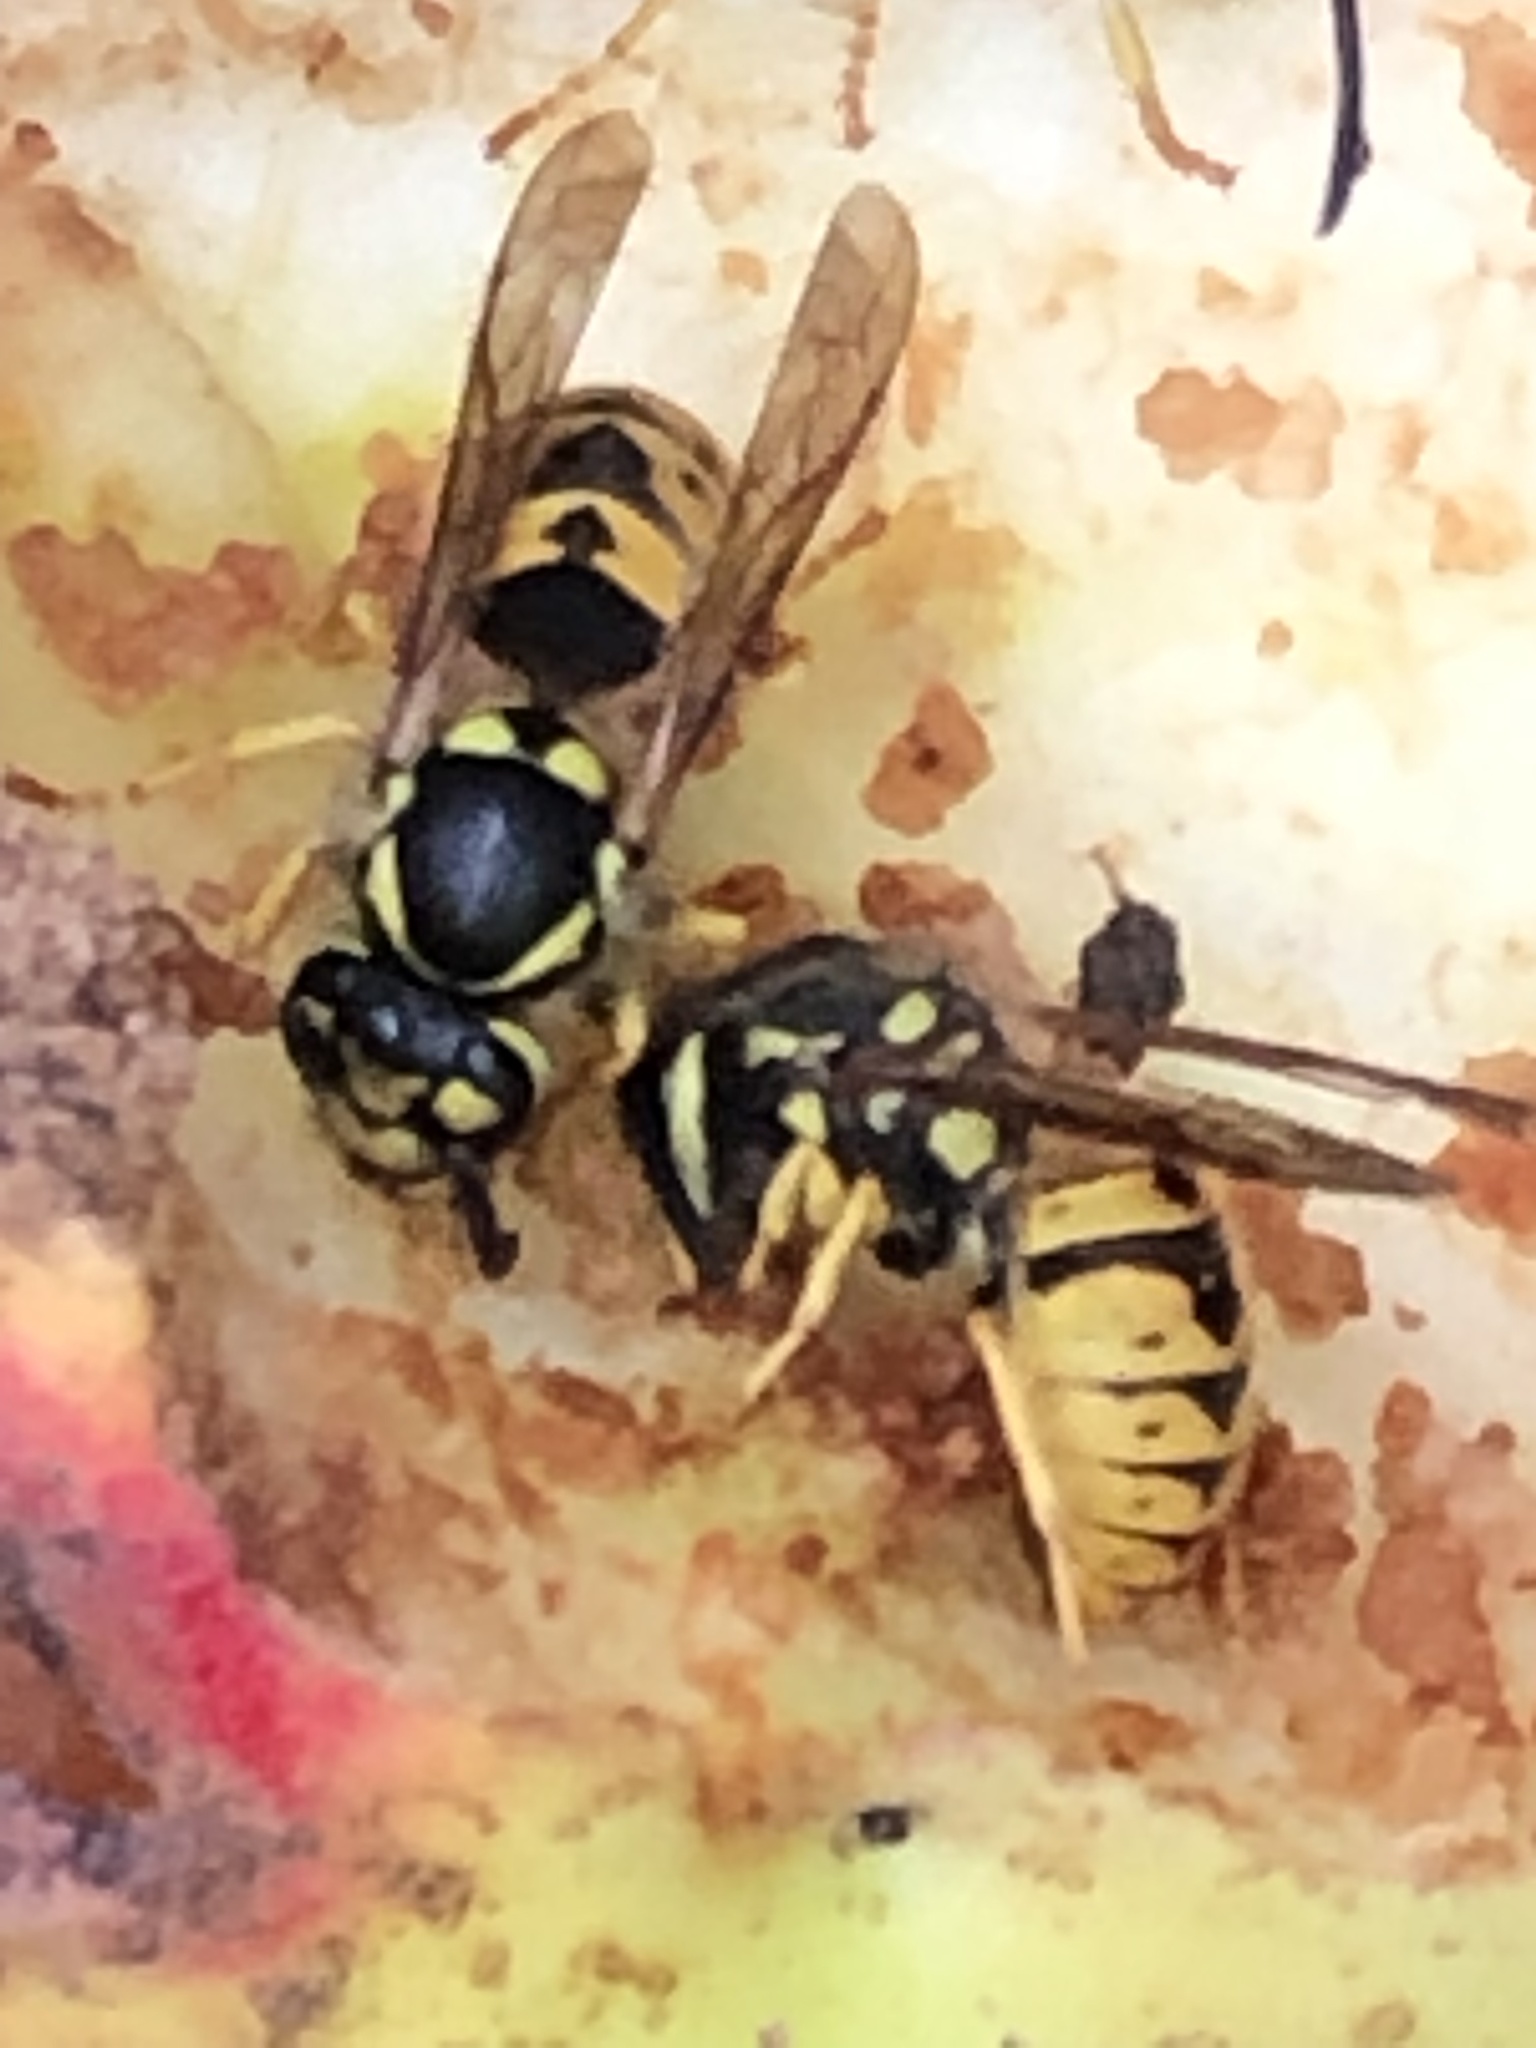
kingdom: Animalia
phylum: Arthropoda
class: Insecta
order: Hymenoptera
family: Vespidae
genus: Vespula
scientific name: Vespula germanica
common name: German wasp
